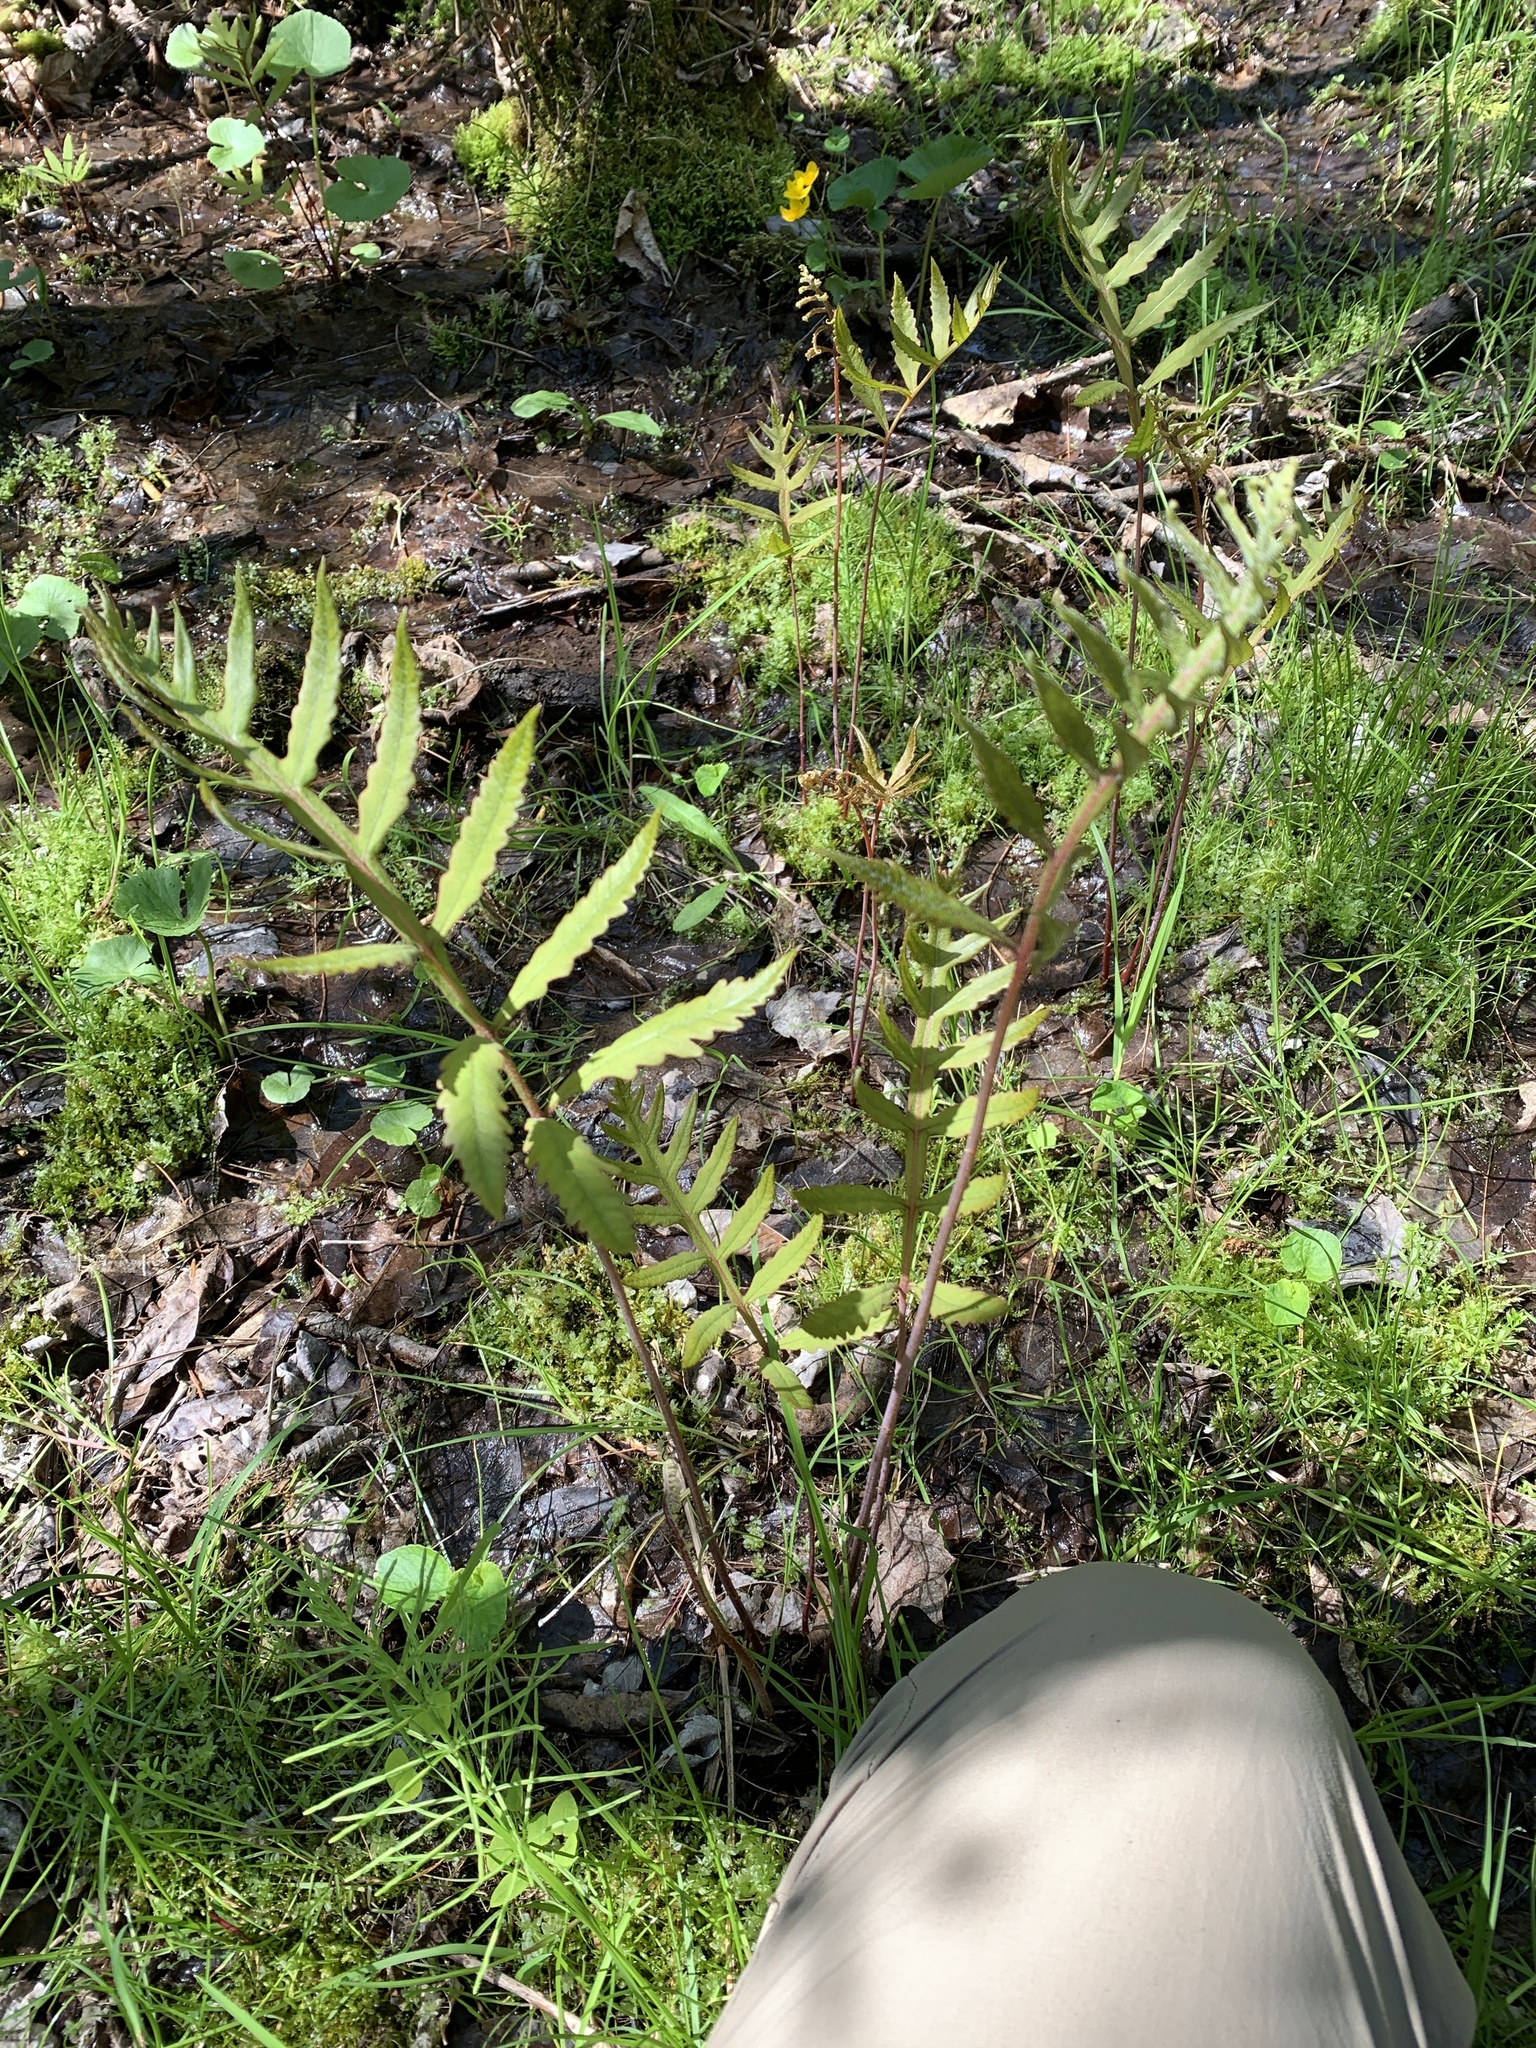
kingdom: Plantae
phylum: Tracheophyta
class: Polypodiopsida
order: Polypodiales
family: Onocleaceae
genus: Onoclea
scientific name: Onoclea sensibilis
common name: Sensitive fern
